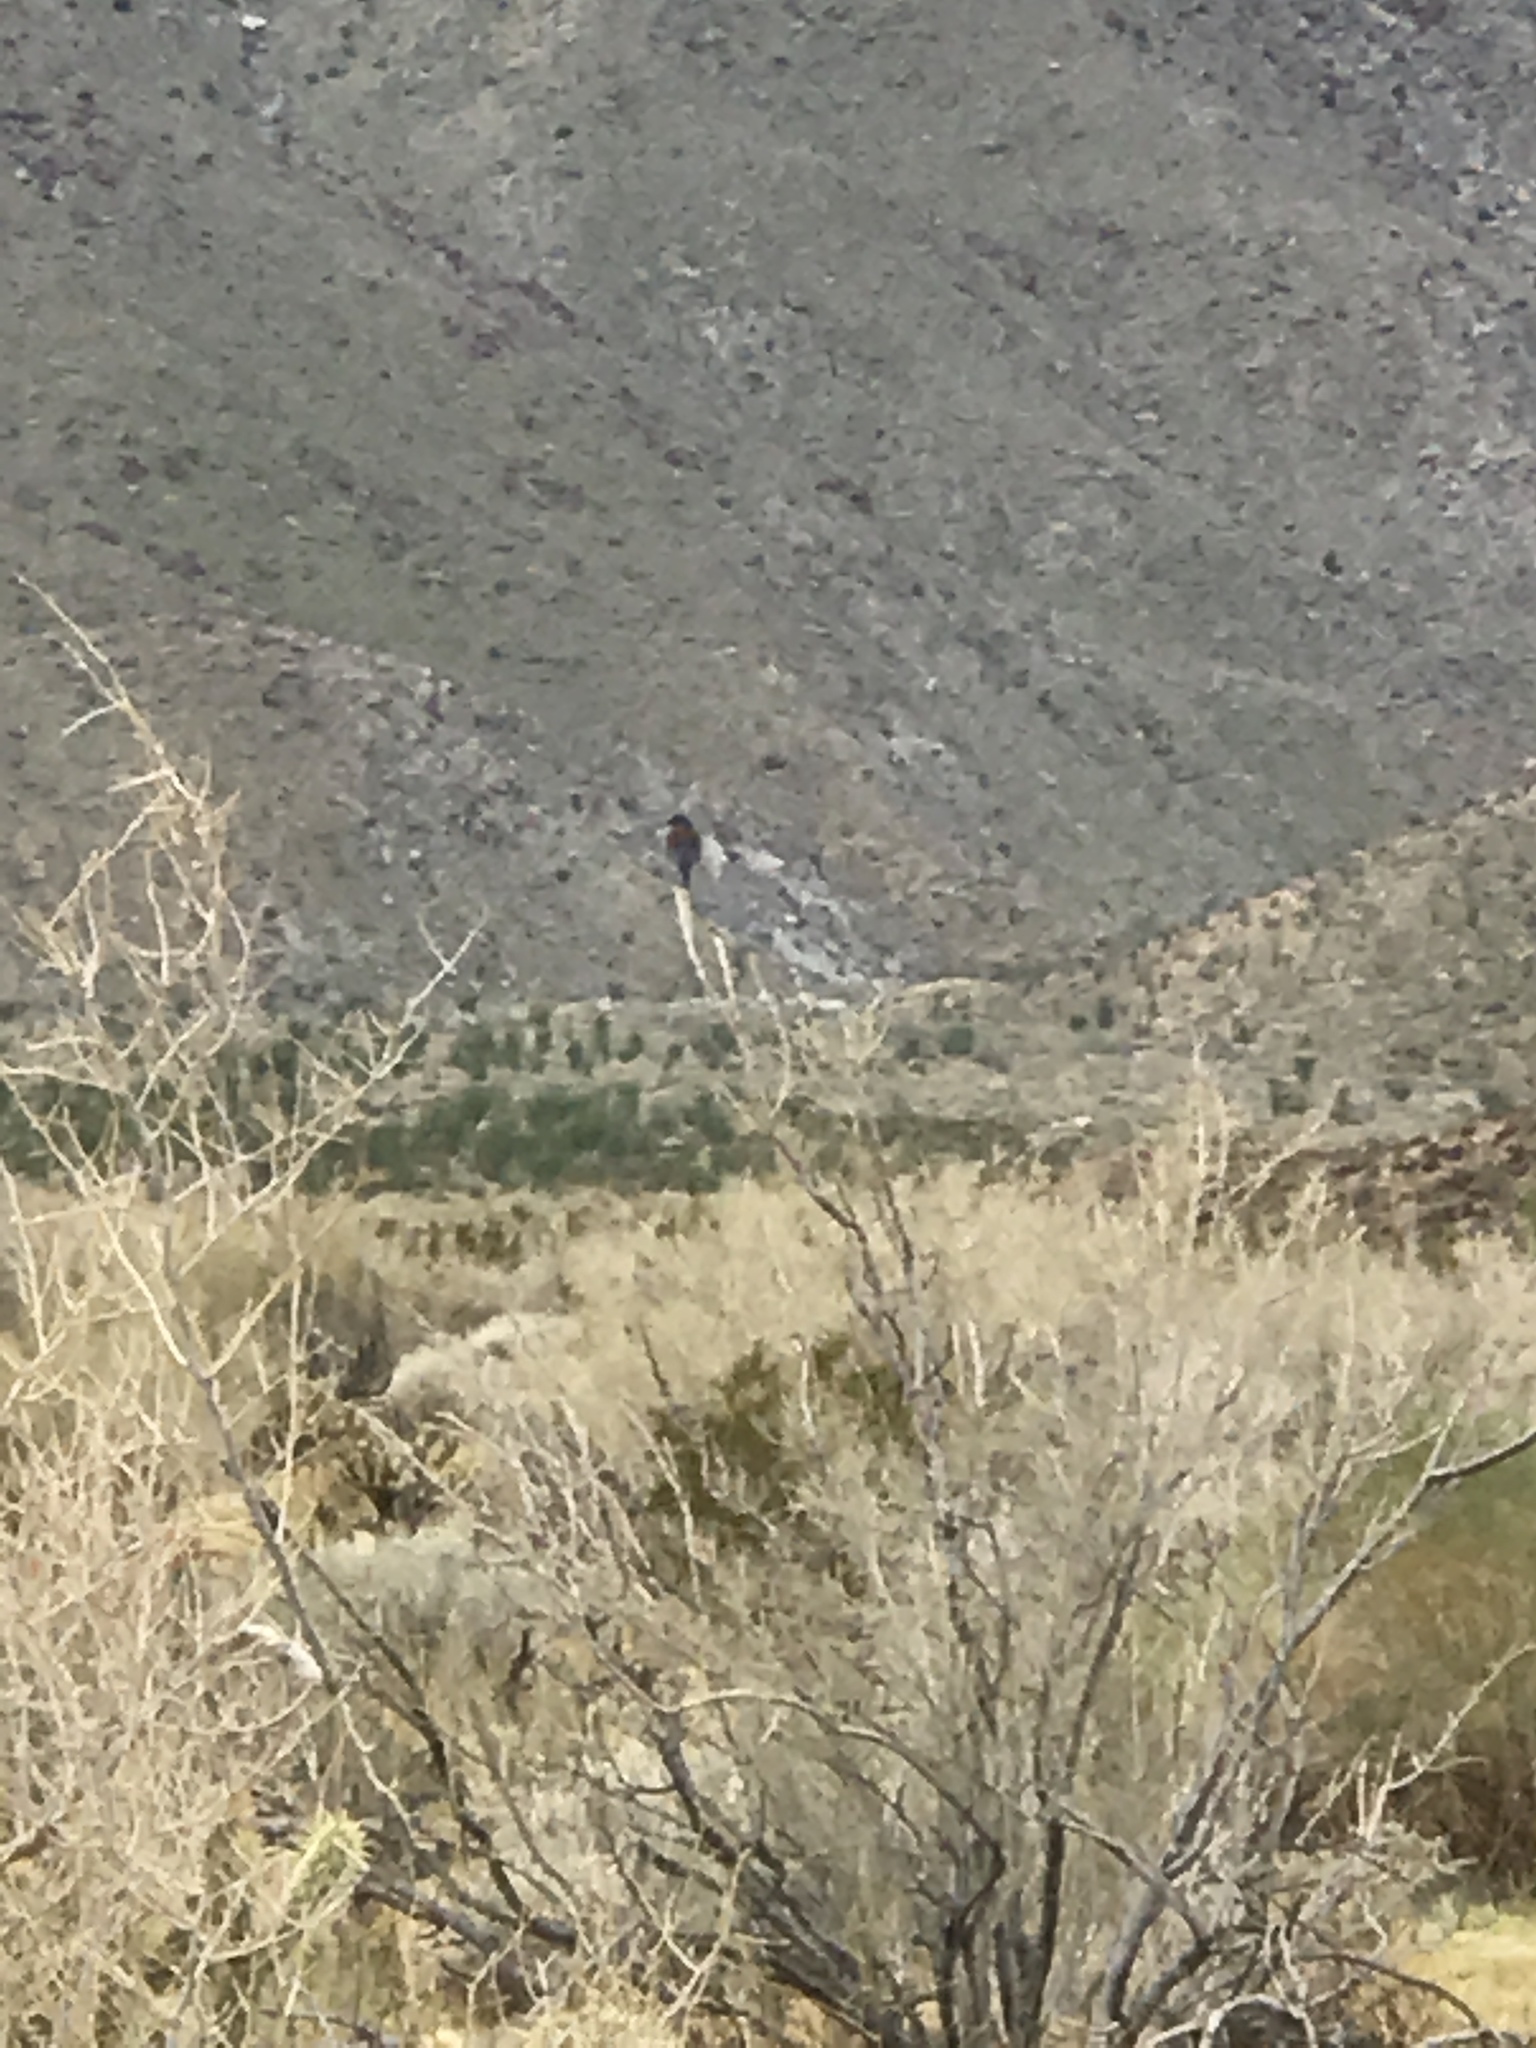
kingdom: Animalia
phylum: Chordata
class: Aves
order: Passeriformes
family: Turdidae
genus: Sialia
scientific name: Sialia mexicana
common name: Western bluebird
